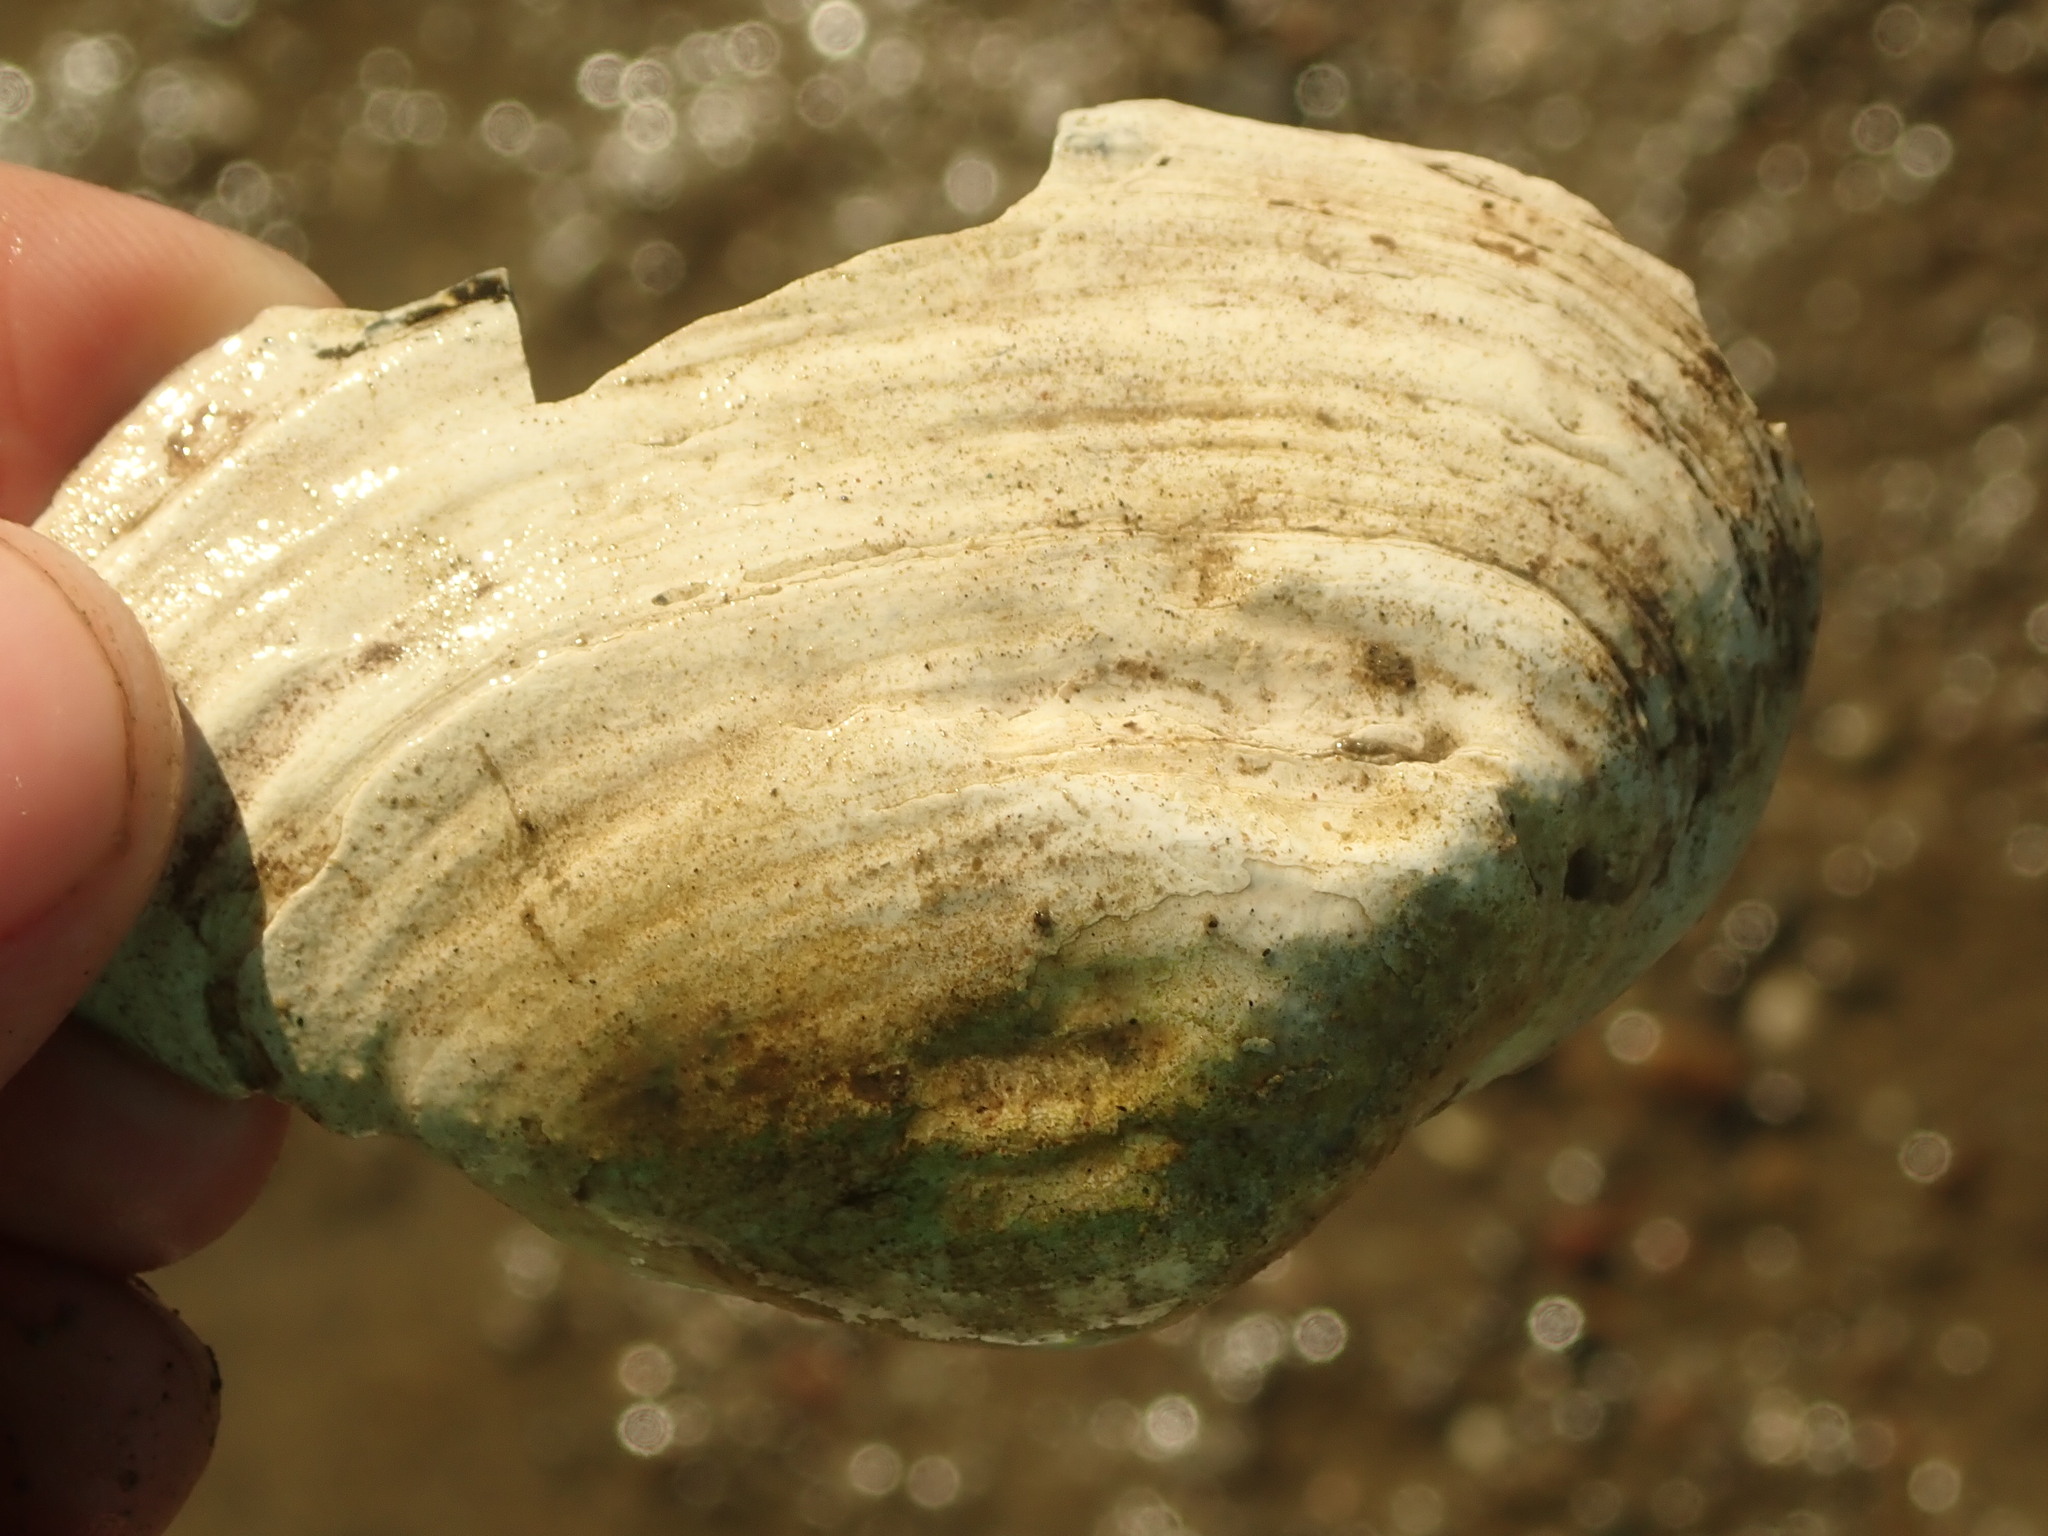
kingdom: Animalia
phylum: Mollusca
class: Bivalvia
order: Myida
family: Myidae
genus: Mya
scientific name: Mya arenaria
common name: Soft-shelled clam
